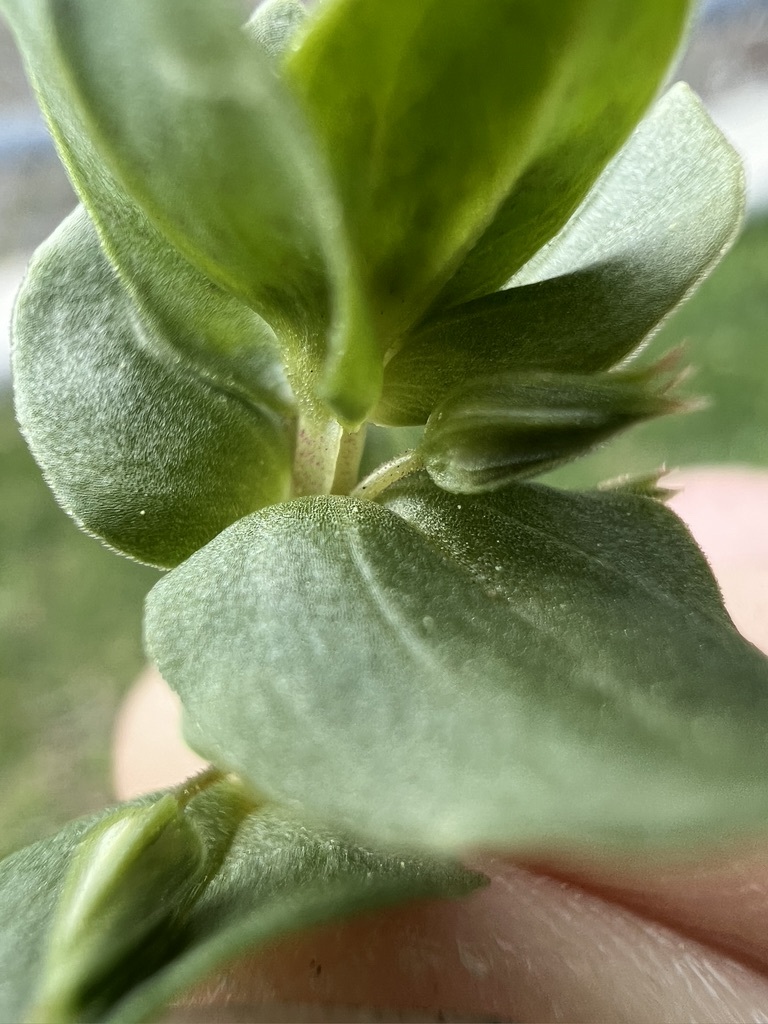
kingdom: Plantae
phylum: Tracheophyta
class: Magnoliopsida
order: Ericales
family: Primulaceae
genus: Lysimachia
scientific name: Lysimachia arvensis
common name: Scarlet pimpernel
